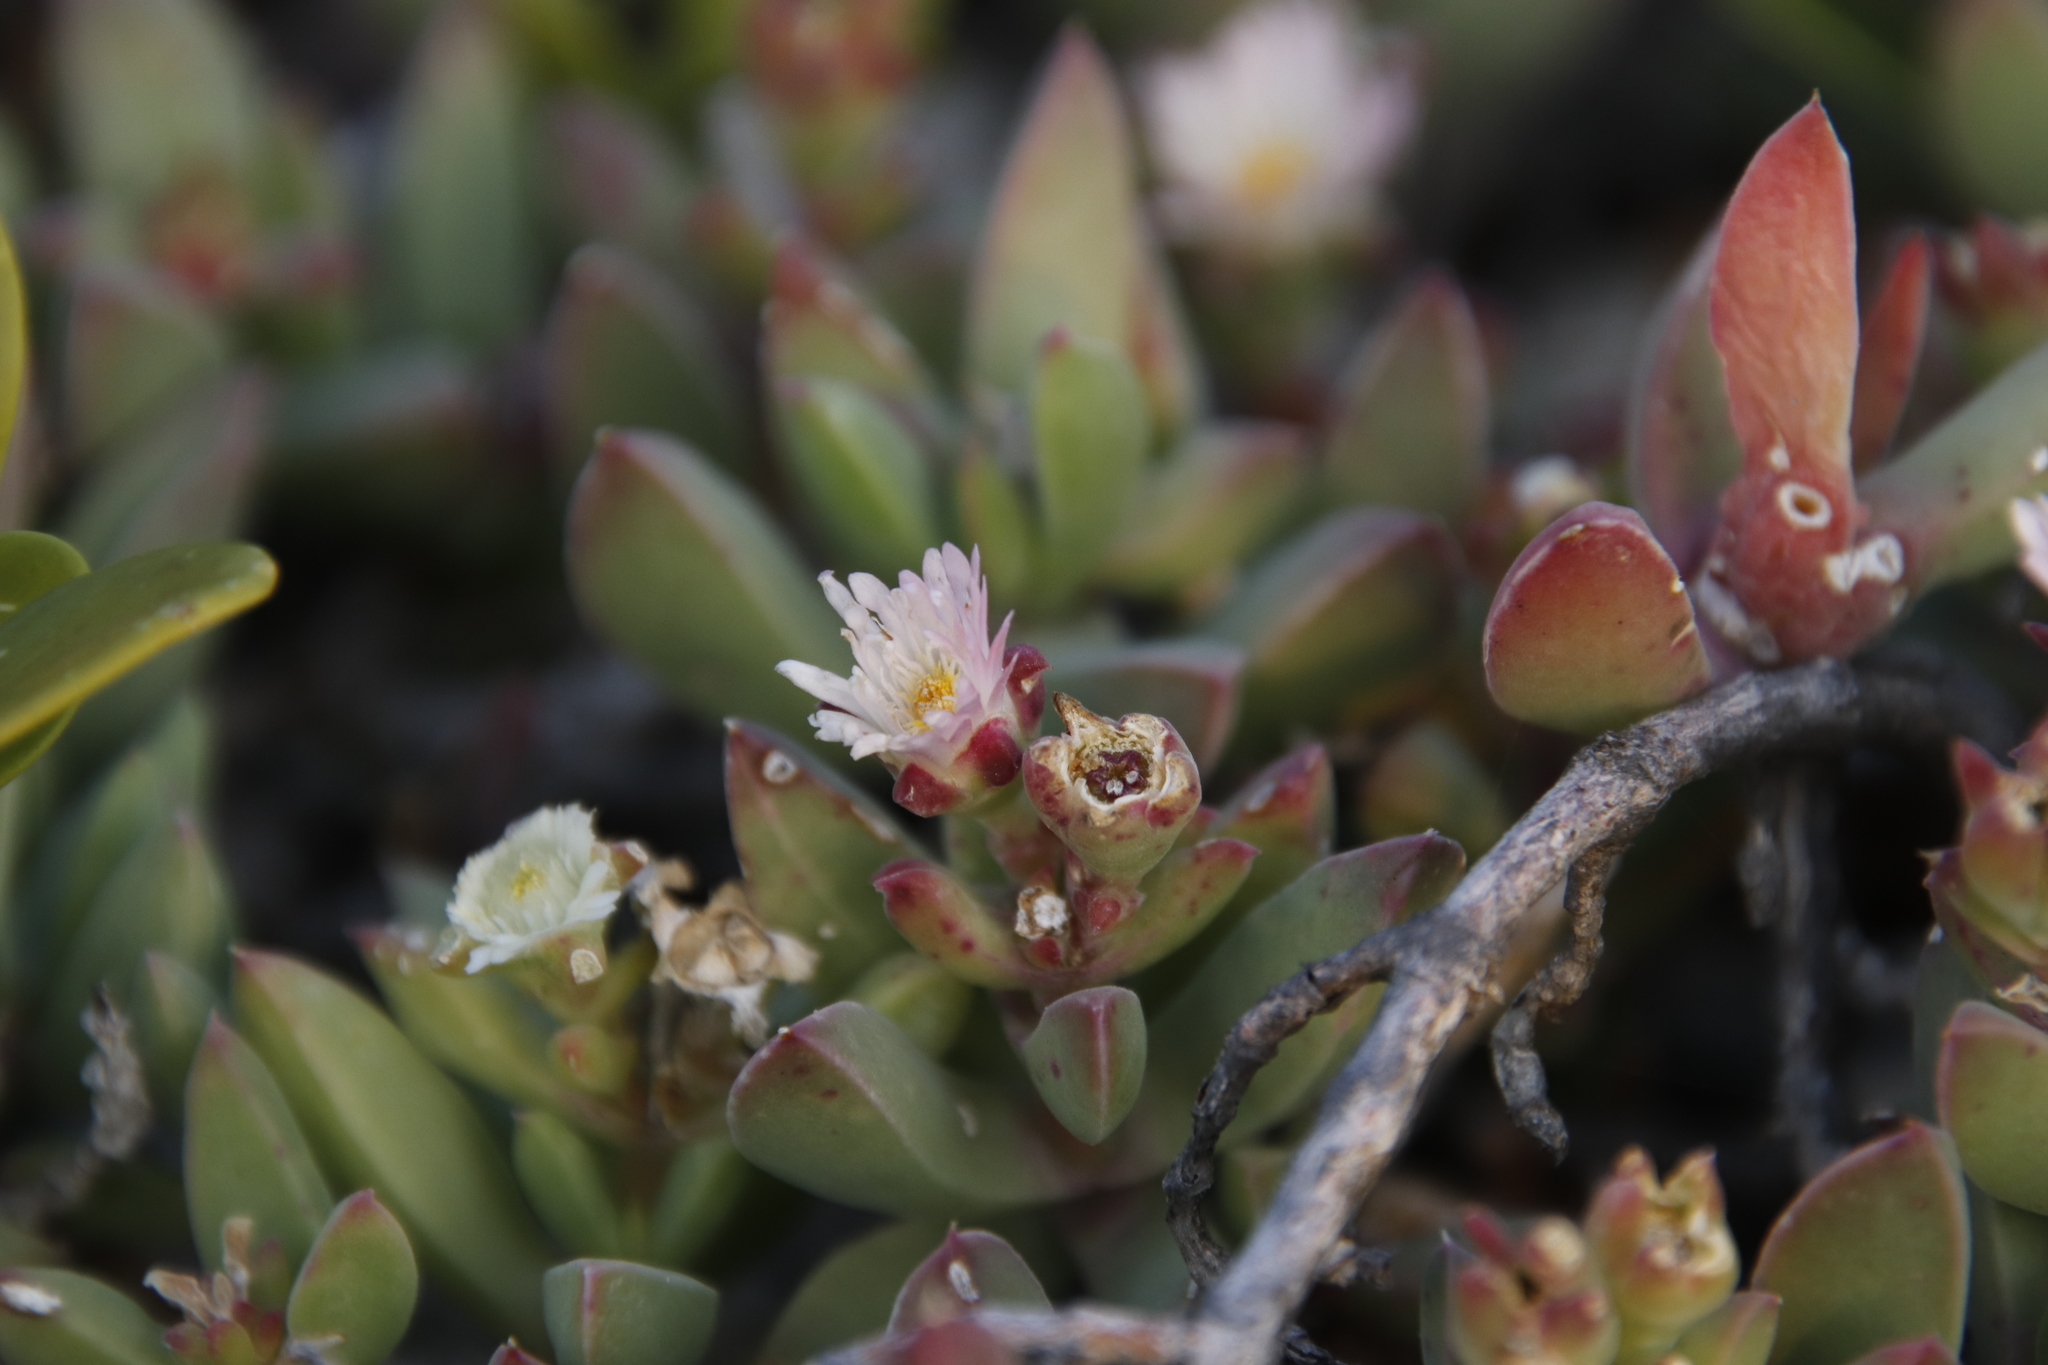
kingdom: Plantae
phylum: Tracheophyta
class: Magnoliopsida
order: Caryophyllales
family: Aizoaceae
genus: Delosperma
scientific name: Delosperma guthriei
